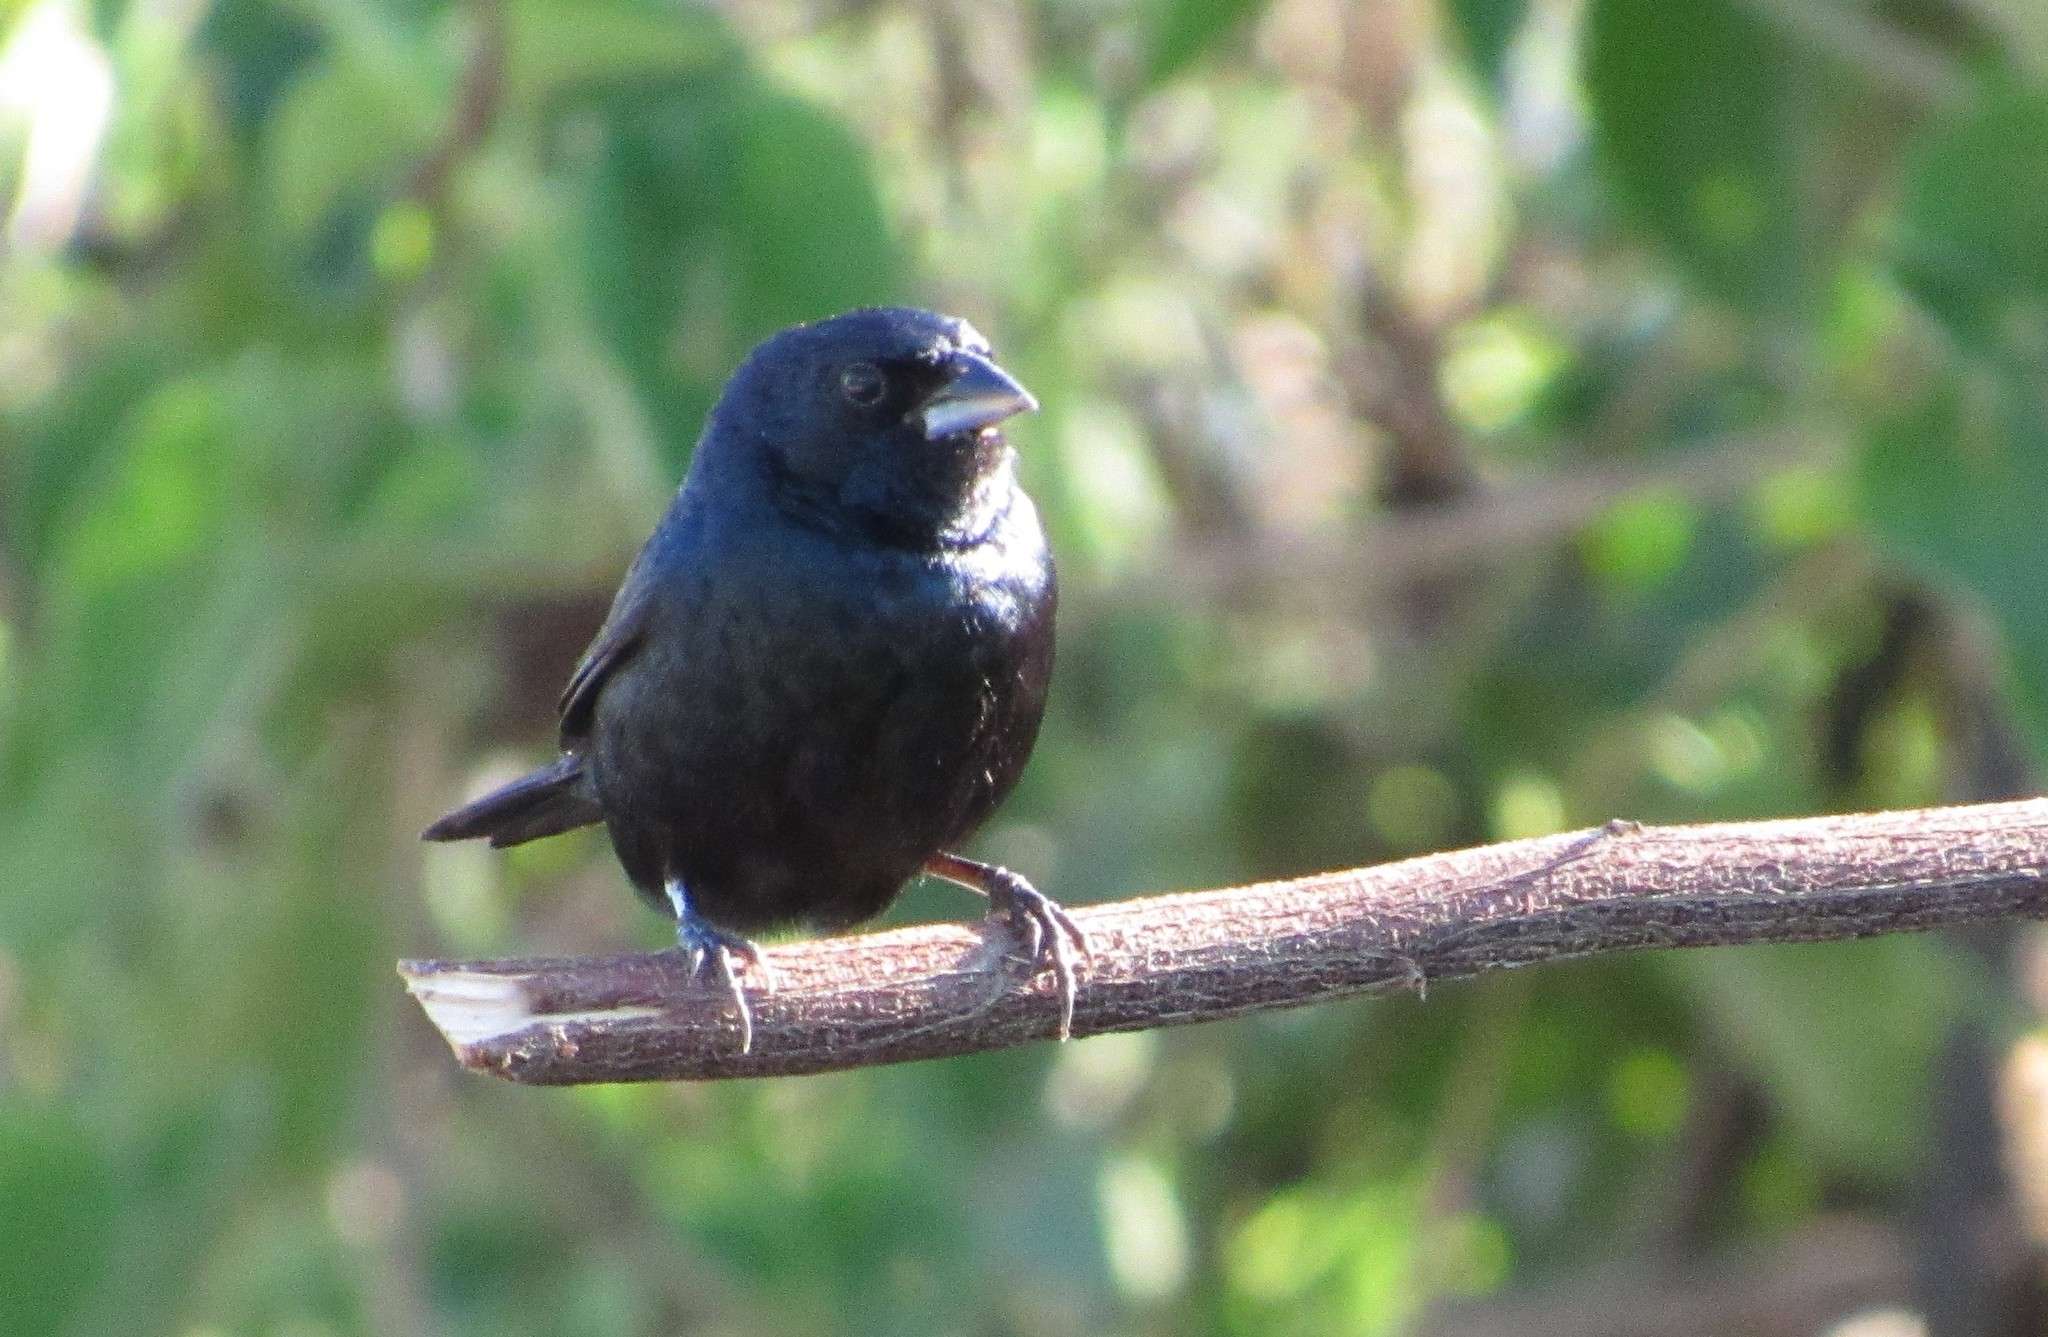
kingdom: Animalia
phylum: Chordata
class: Aves
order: Passeriformes
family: Thraupidae
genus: Volatinia
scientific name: Volatinia jacarina
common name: Blue-black grassquit
